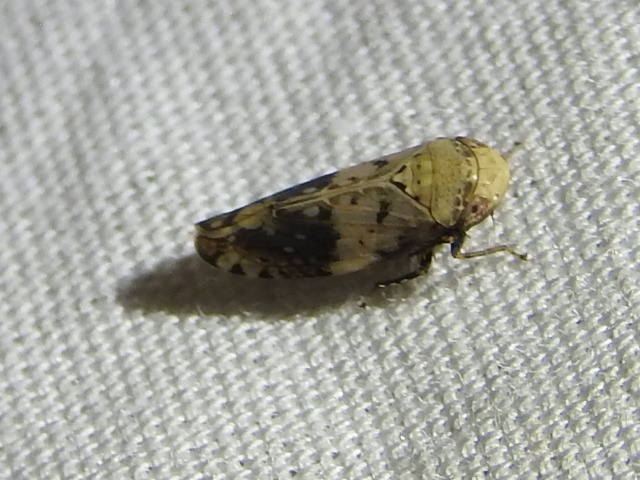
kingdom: Animalia
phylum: Arthropoda
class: Insecta
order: Hemiptera
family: Cicadellidae
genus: Menosoma
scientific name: Menosoma cinctum
